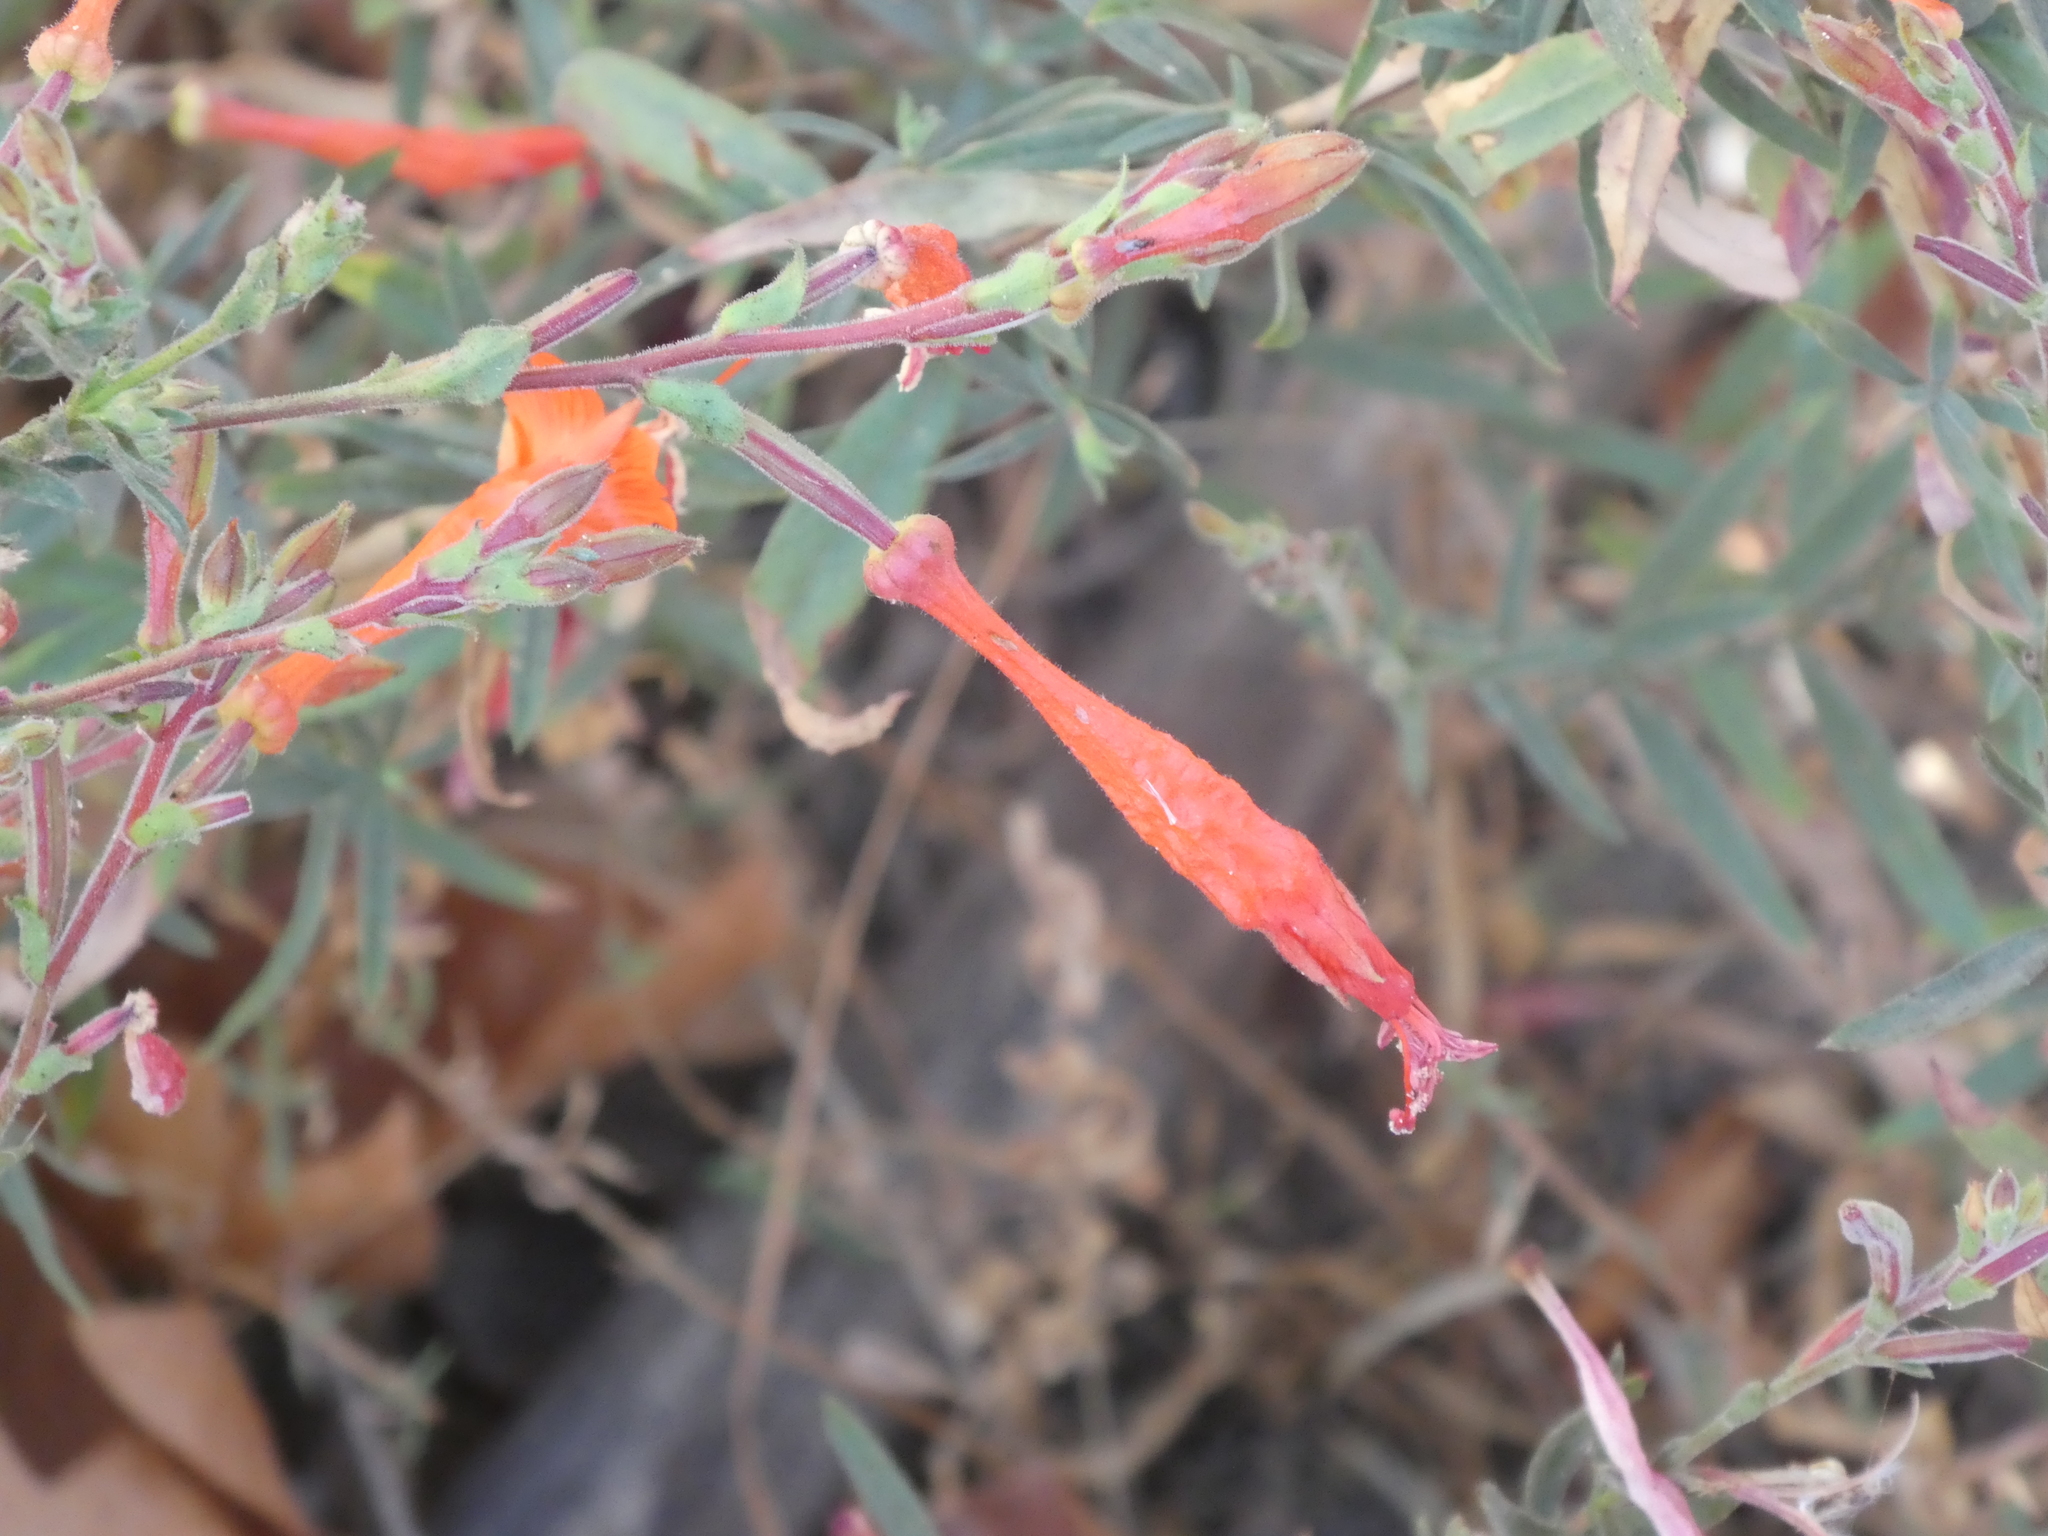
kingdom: Plantae
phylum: Tracheophyta
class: Magnoliopsida
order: Myrtales
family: Onagraceae
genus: Epilobium
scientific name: Epilobium canum
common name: California-fuchsia
